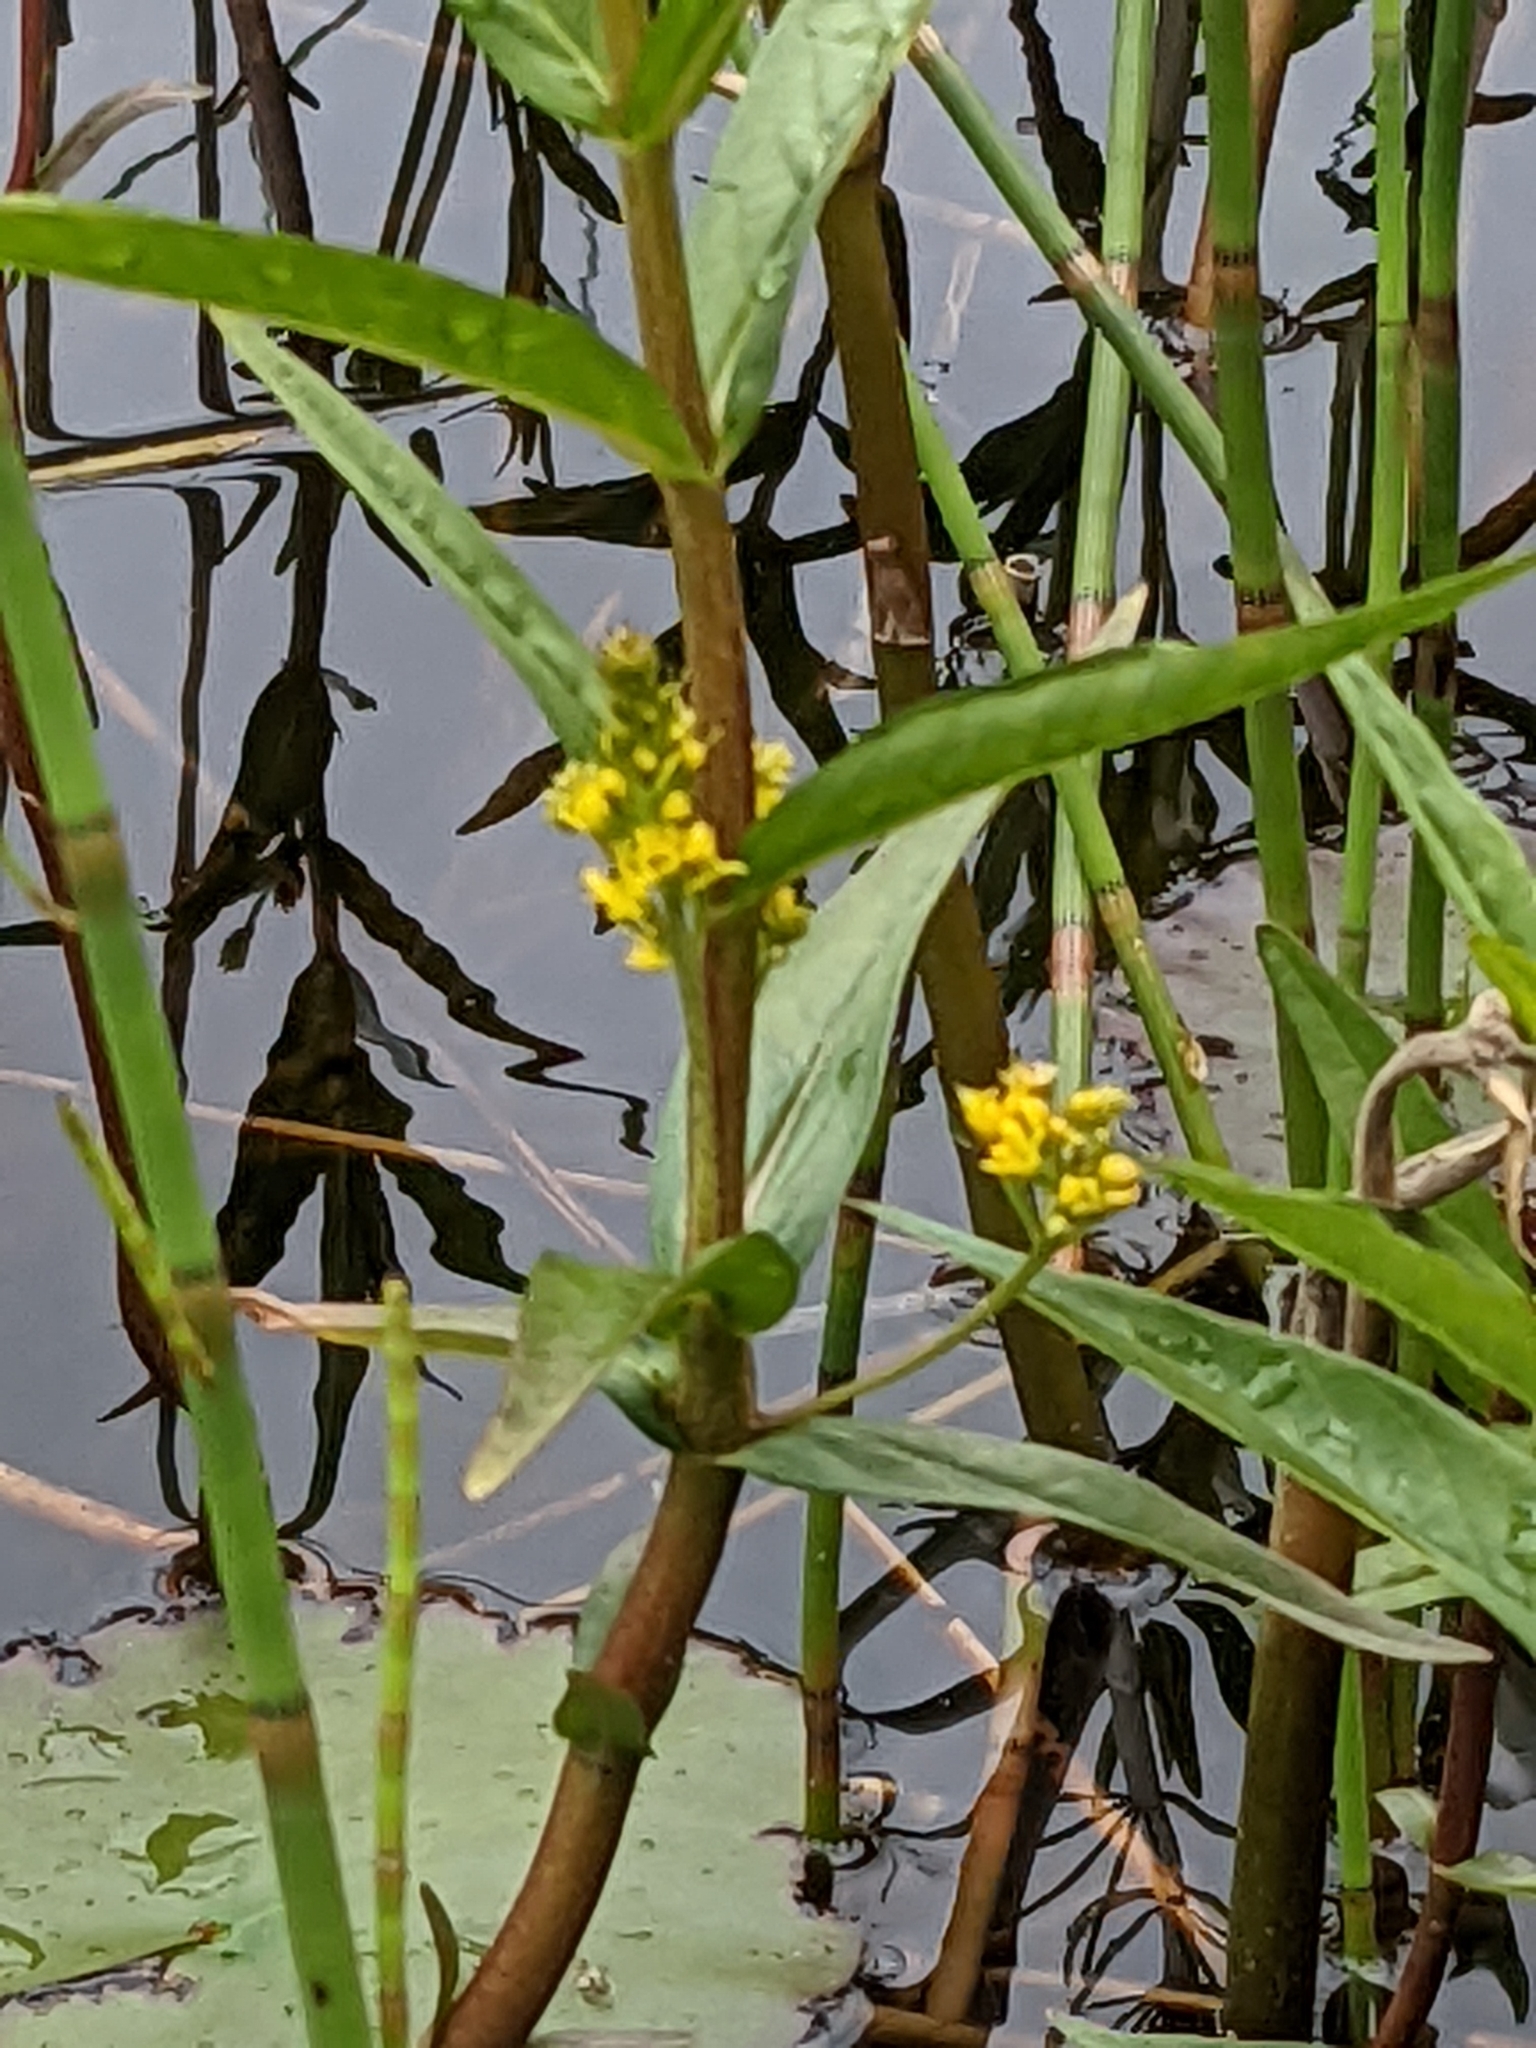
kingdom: Plantae
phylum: Tracheophyta
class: Magnoliopsida
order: Ericales
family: Primulaceae
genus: Lysimachia
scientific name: Lysimachia thyrsiflora
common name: Tufted loosestrife
